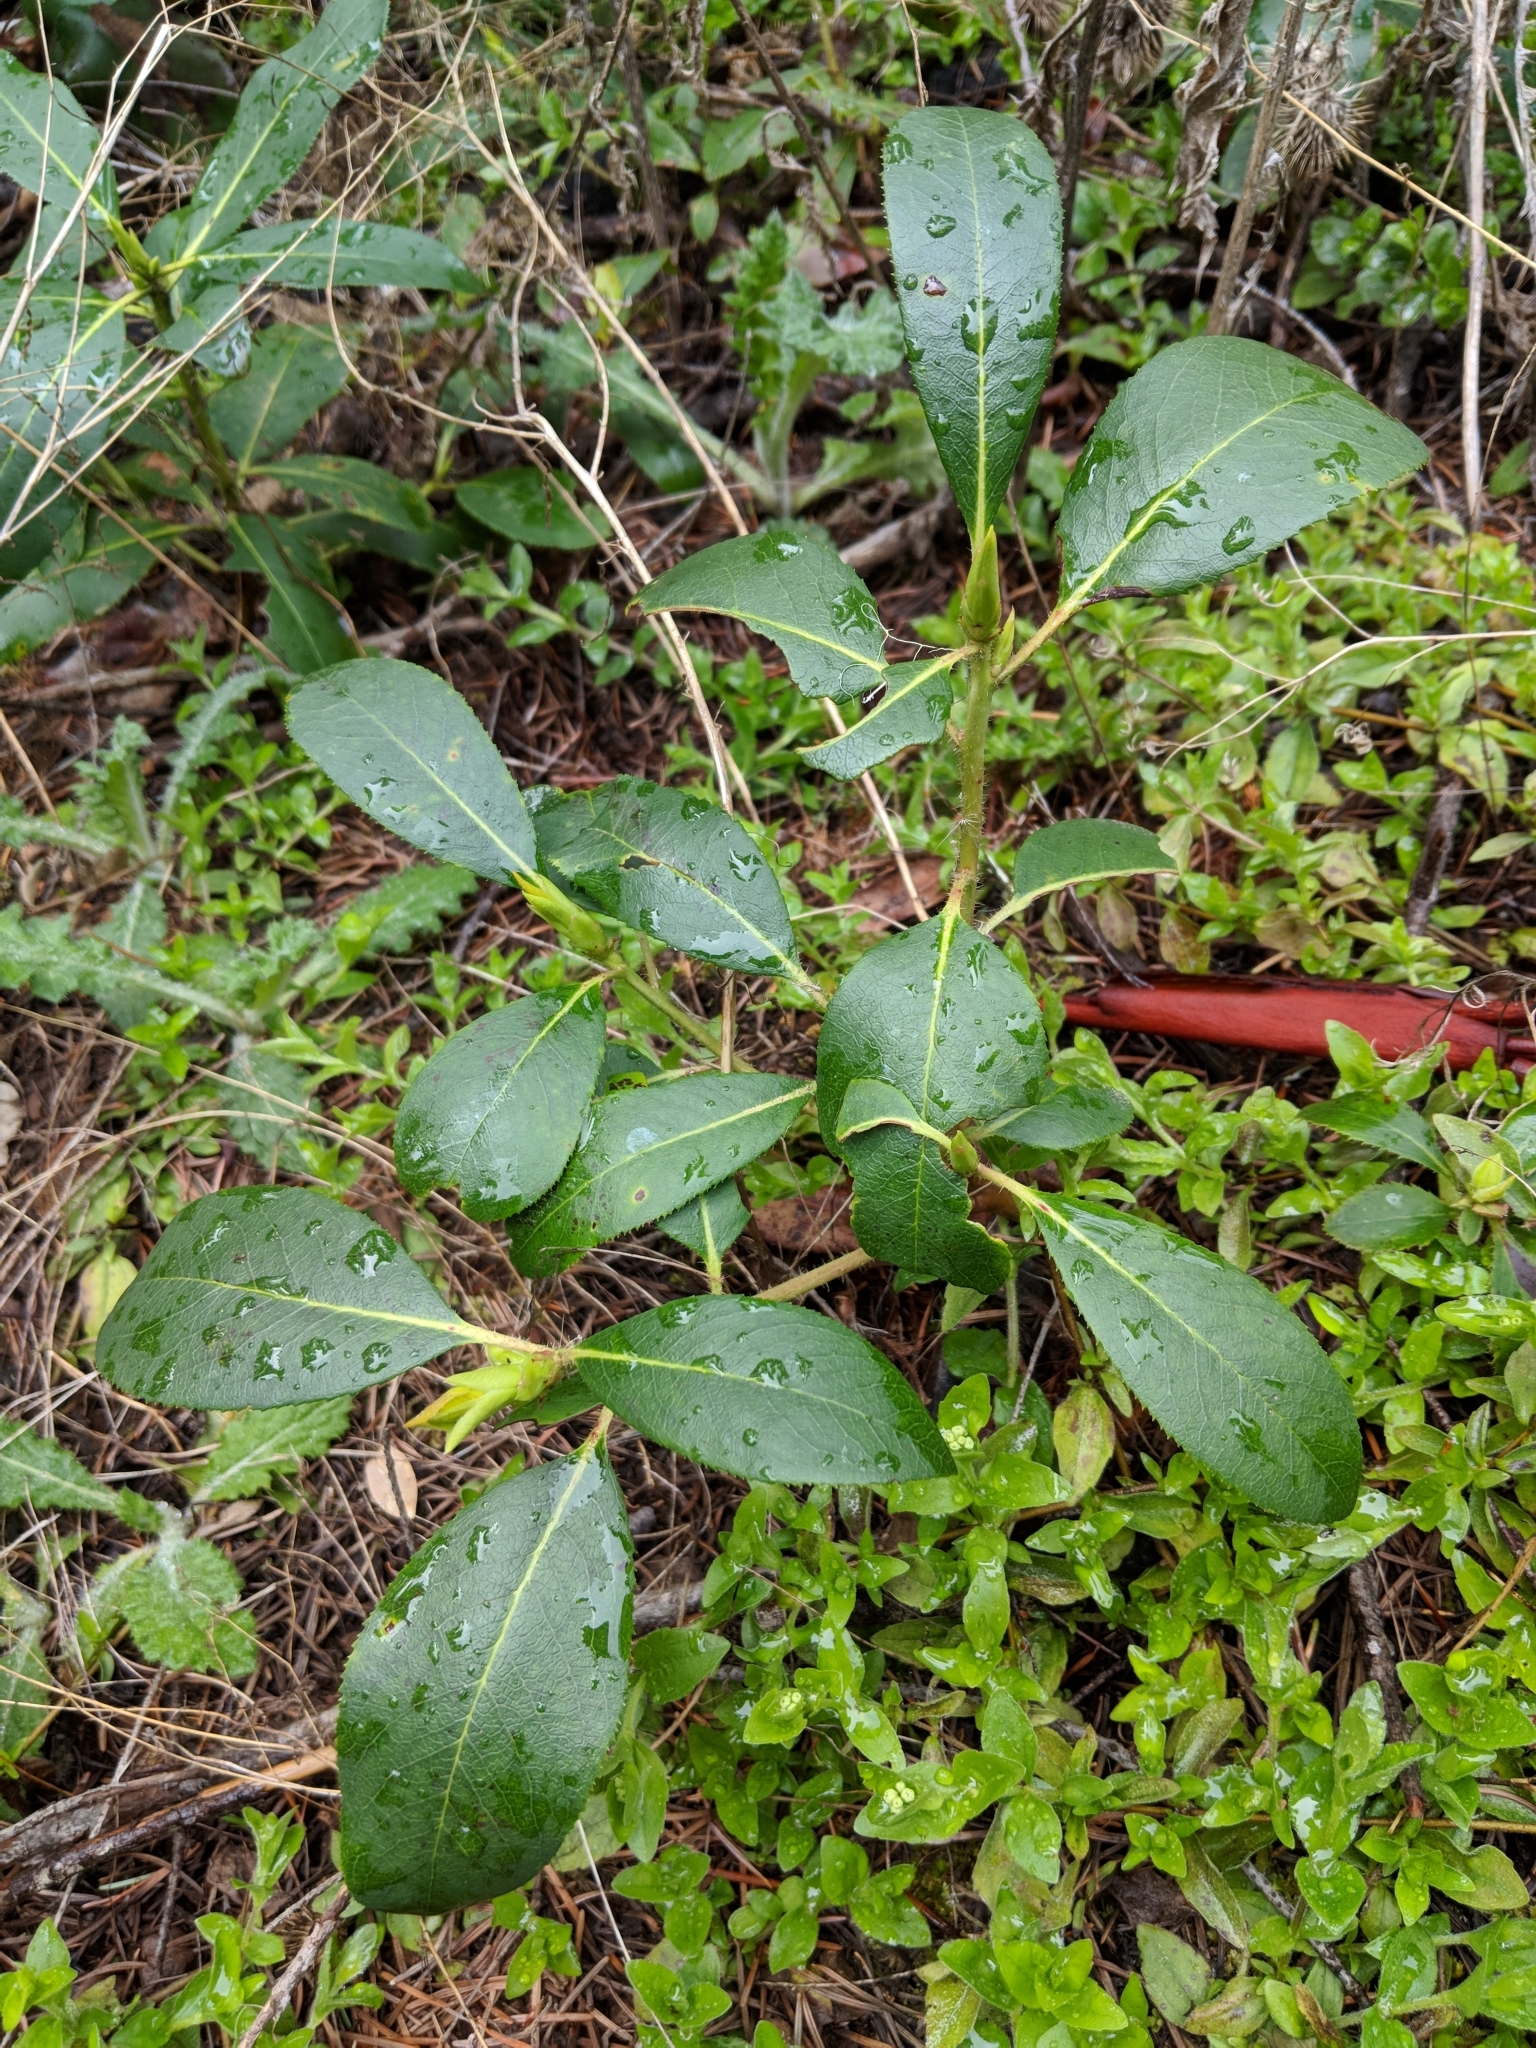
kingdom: Plantae
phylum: Tracheophyta
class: Magnoliopsida
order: Ericales
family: Ericaceae
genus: Arbutus
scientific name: Arbutus menziesii
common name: Pacific madrone
